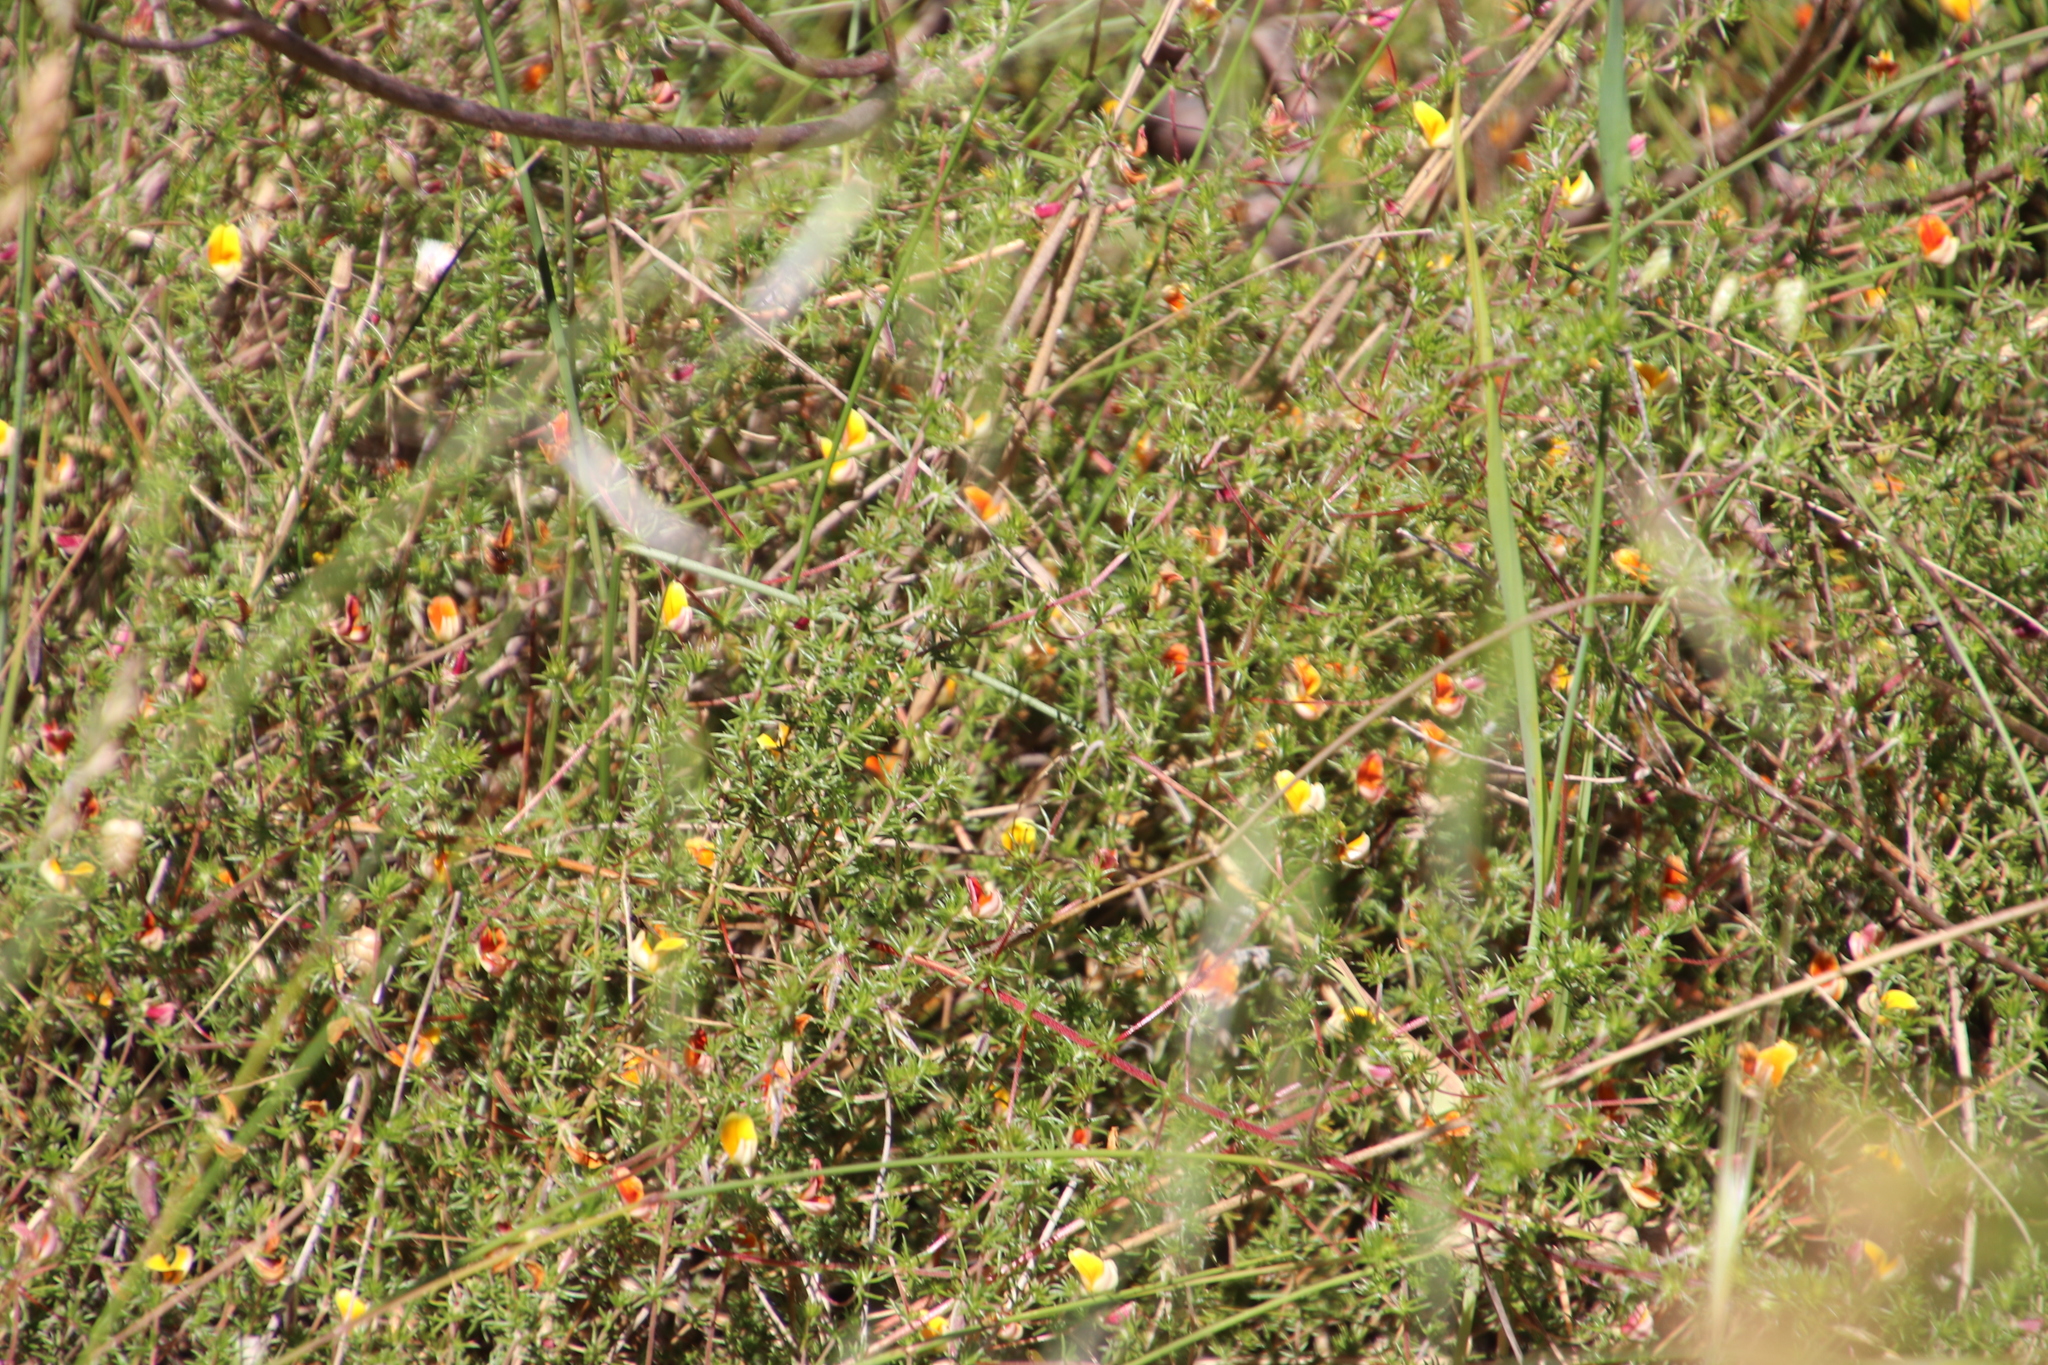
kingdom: Plantae
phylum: Tracheophyta
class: Magnoliopsida
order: Fabales
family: Fabaceae
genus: Aspalathus
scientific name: Aspalathus retroflexa
